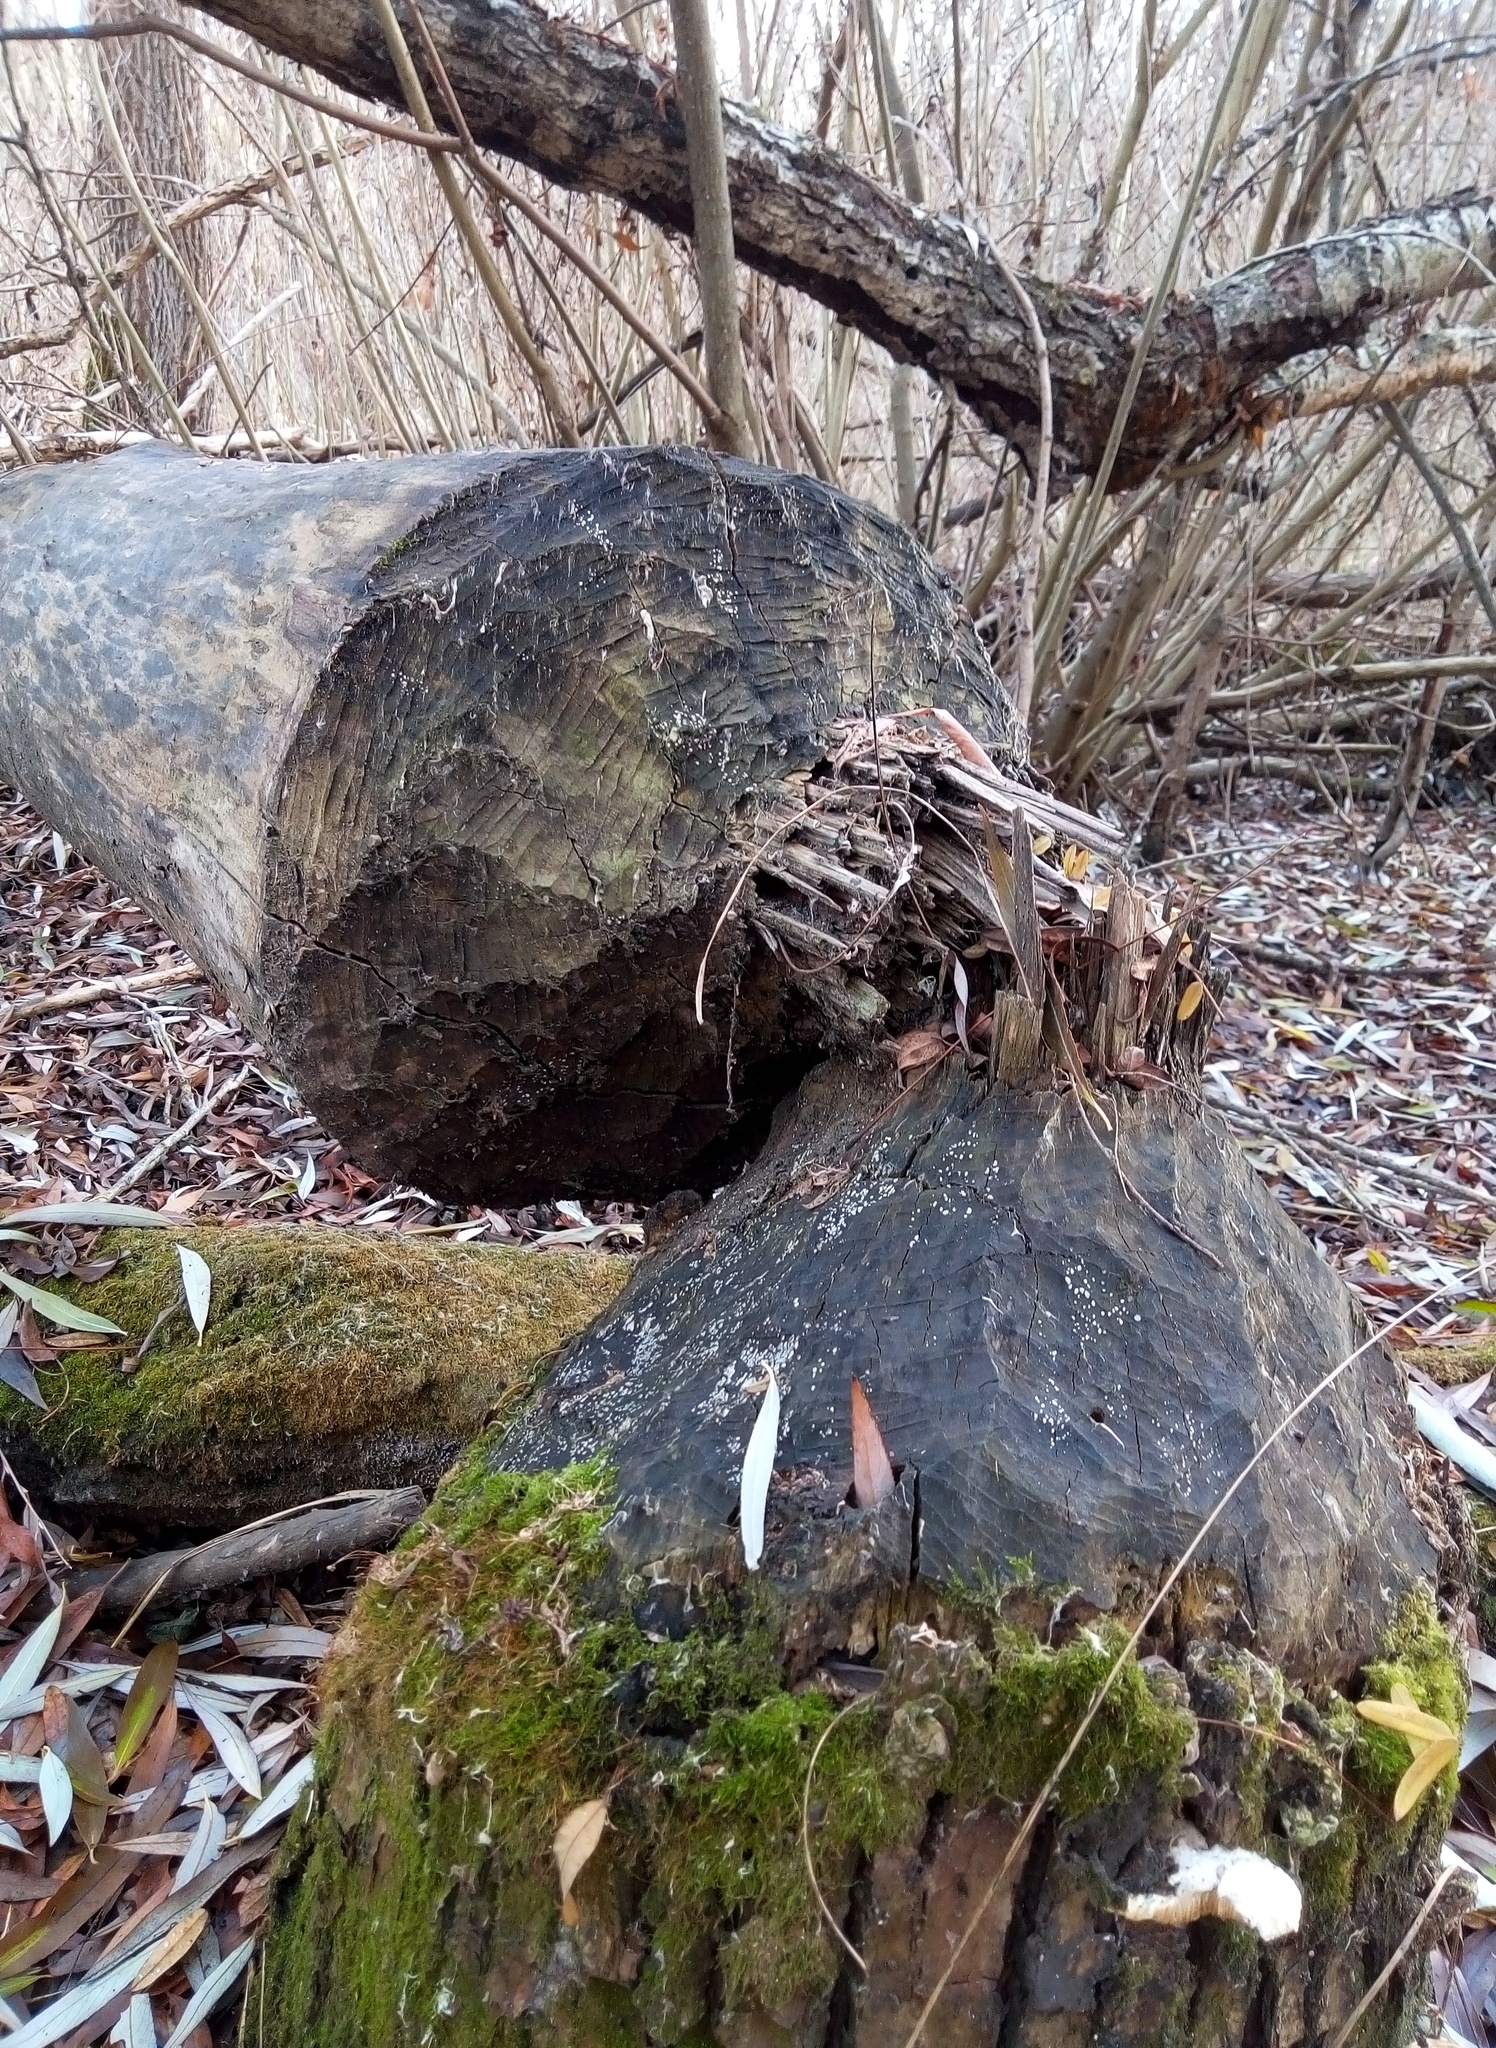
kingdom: Animalia
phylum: Chordata
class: Mammalia
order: Rodentia
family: Castoridae
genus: Castor
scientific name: Castor fiber
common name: Eurasian beaver
